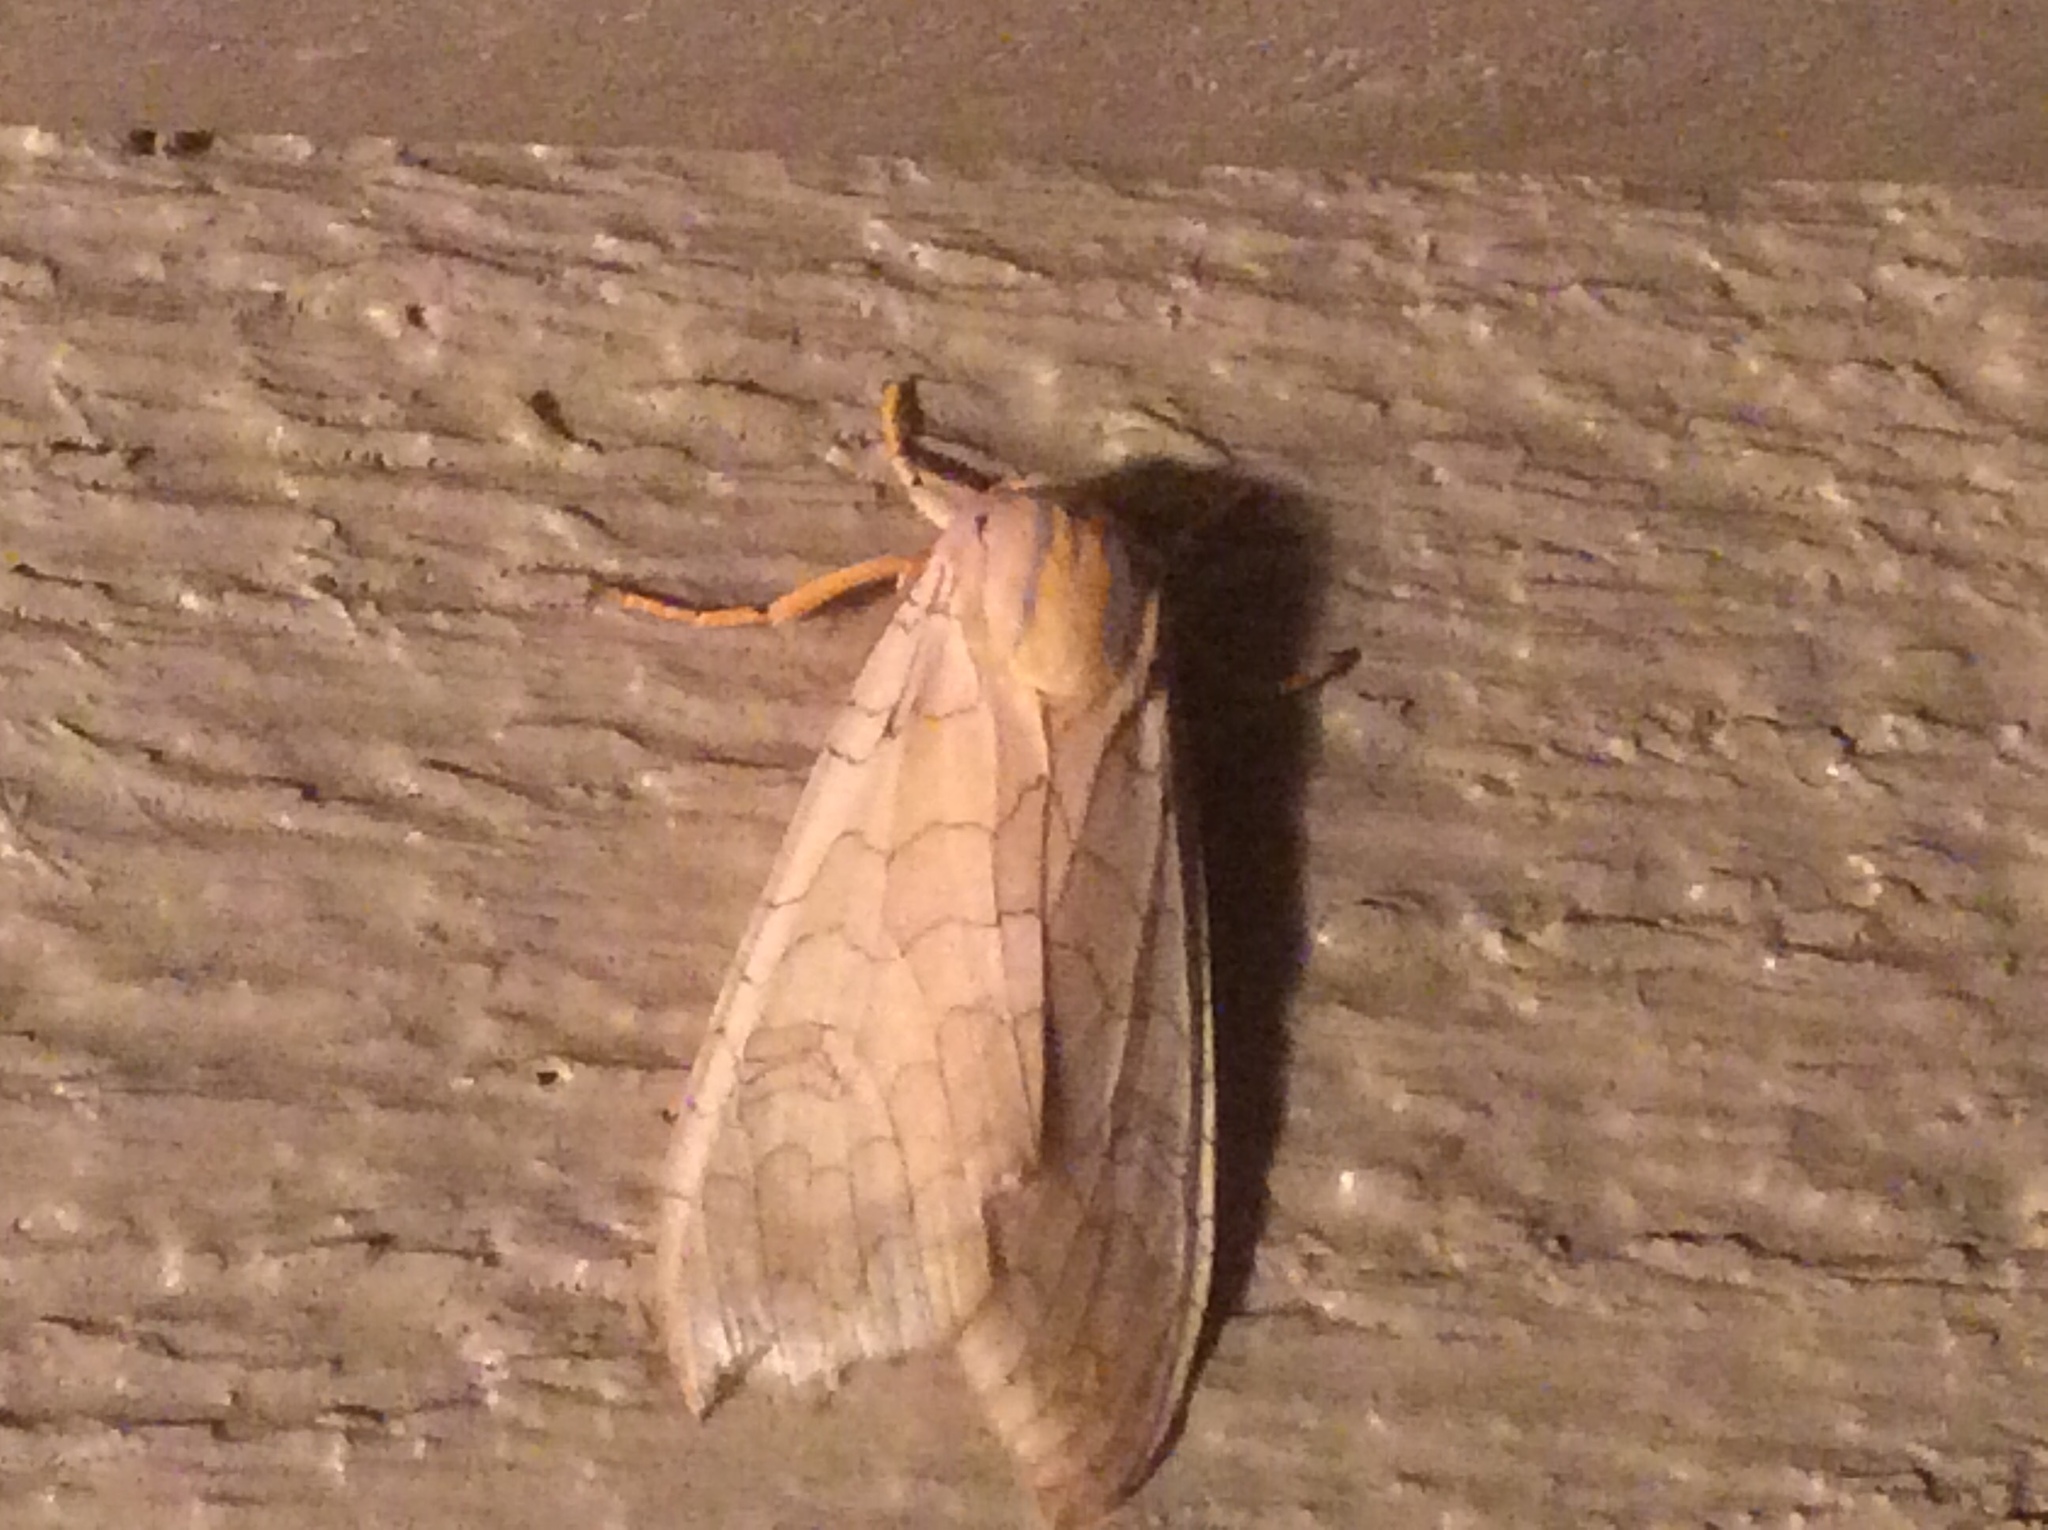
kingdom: Animalia
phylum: Arthropoda
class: Insecta
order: Lepidoptera
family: Erebidae
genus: Halysidota
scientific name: Halysidota
